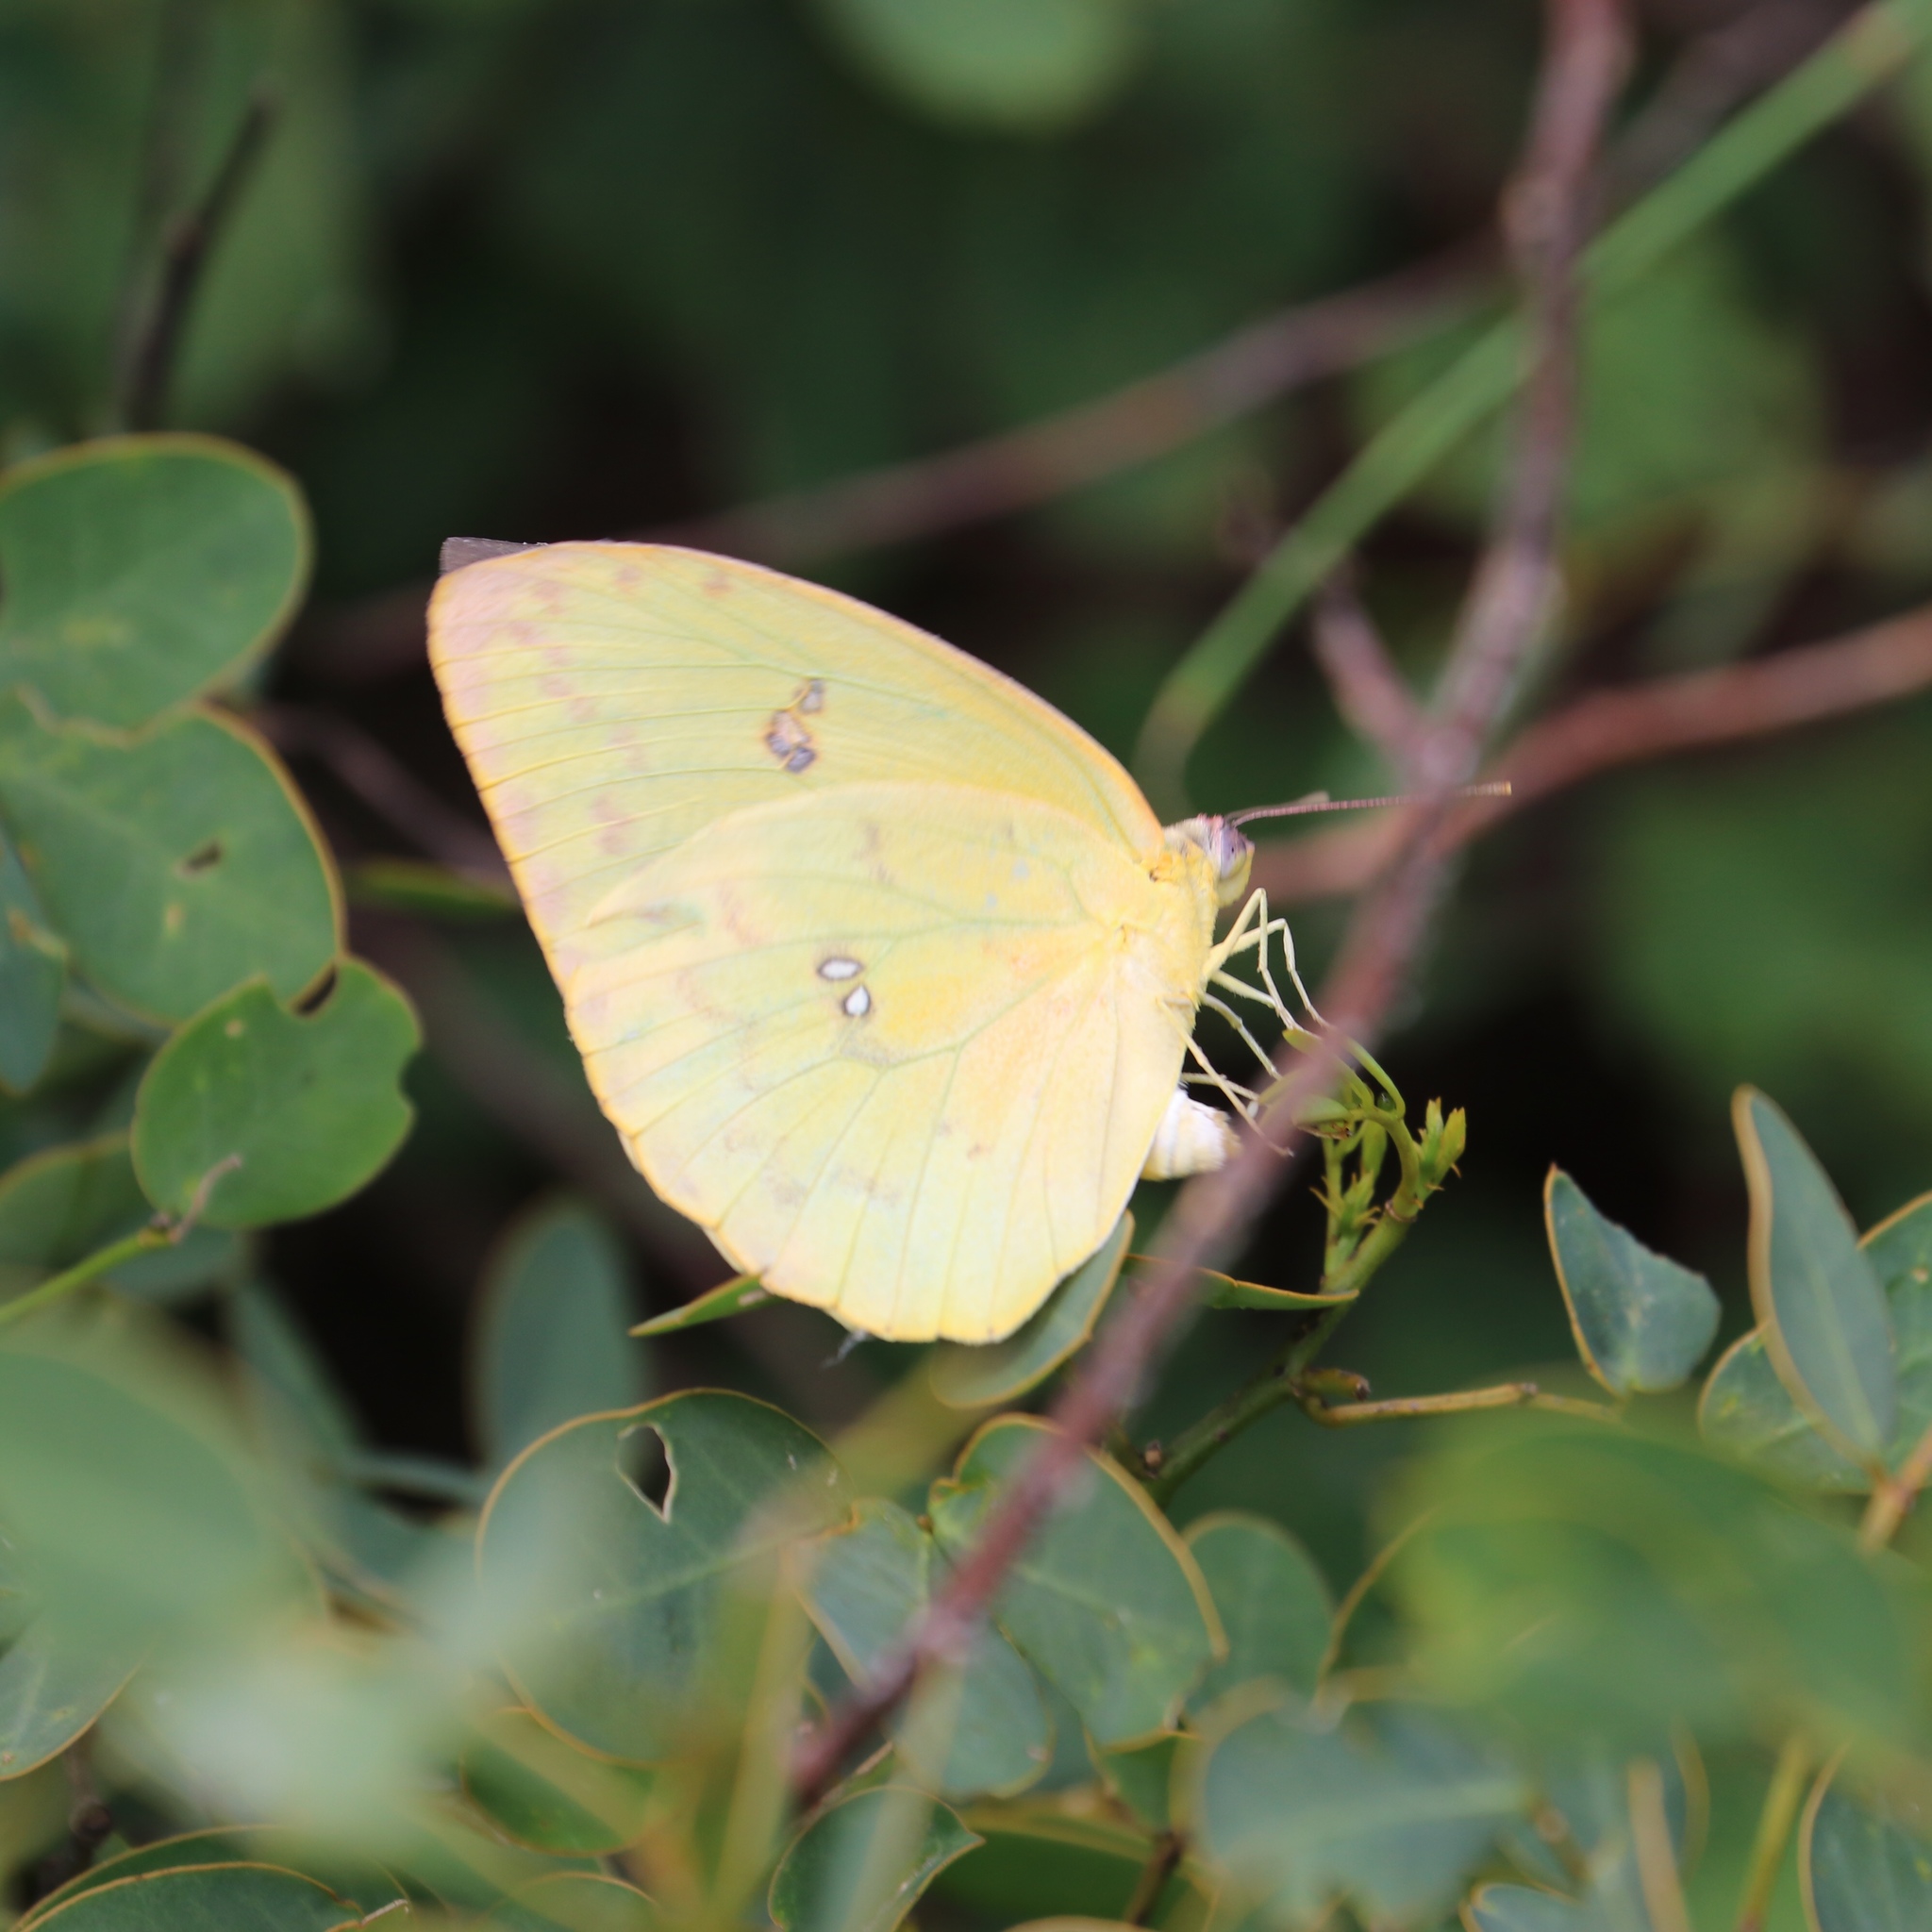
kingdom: Animalia
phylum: Arthropoda
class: Insecta
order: Lepidoptera
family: Pieridae
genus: Phoebis
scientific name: Phoebis sennae
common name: Cloudless sulphur
